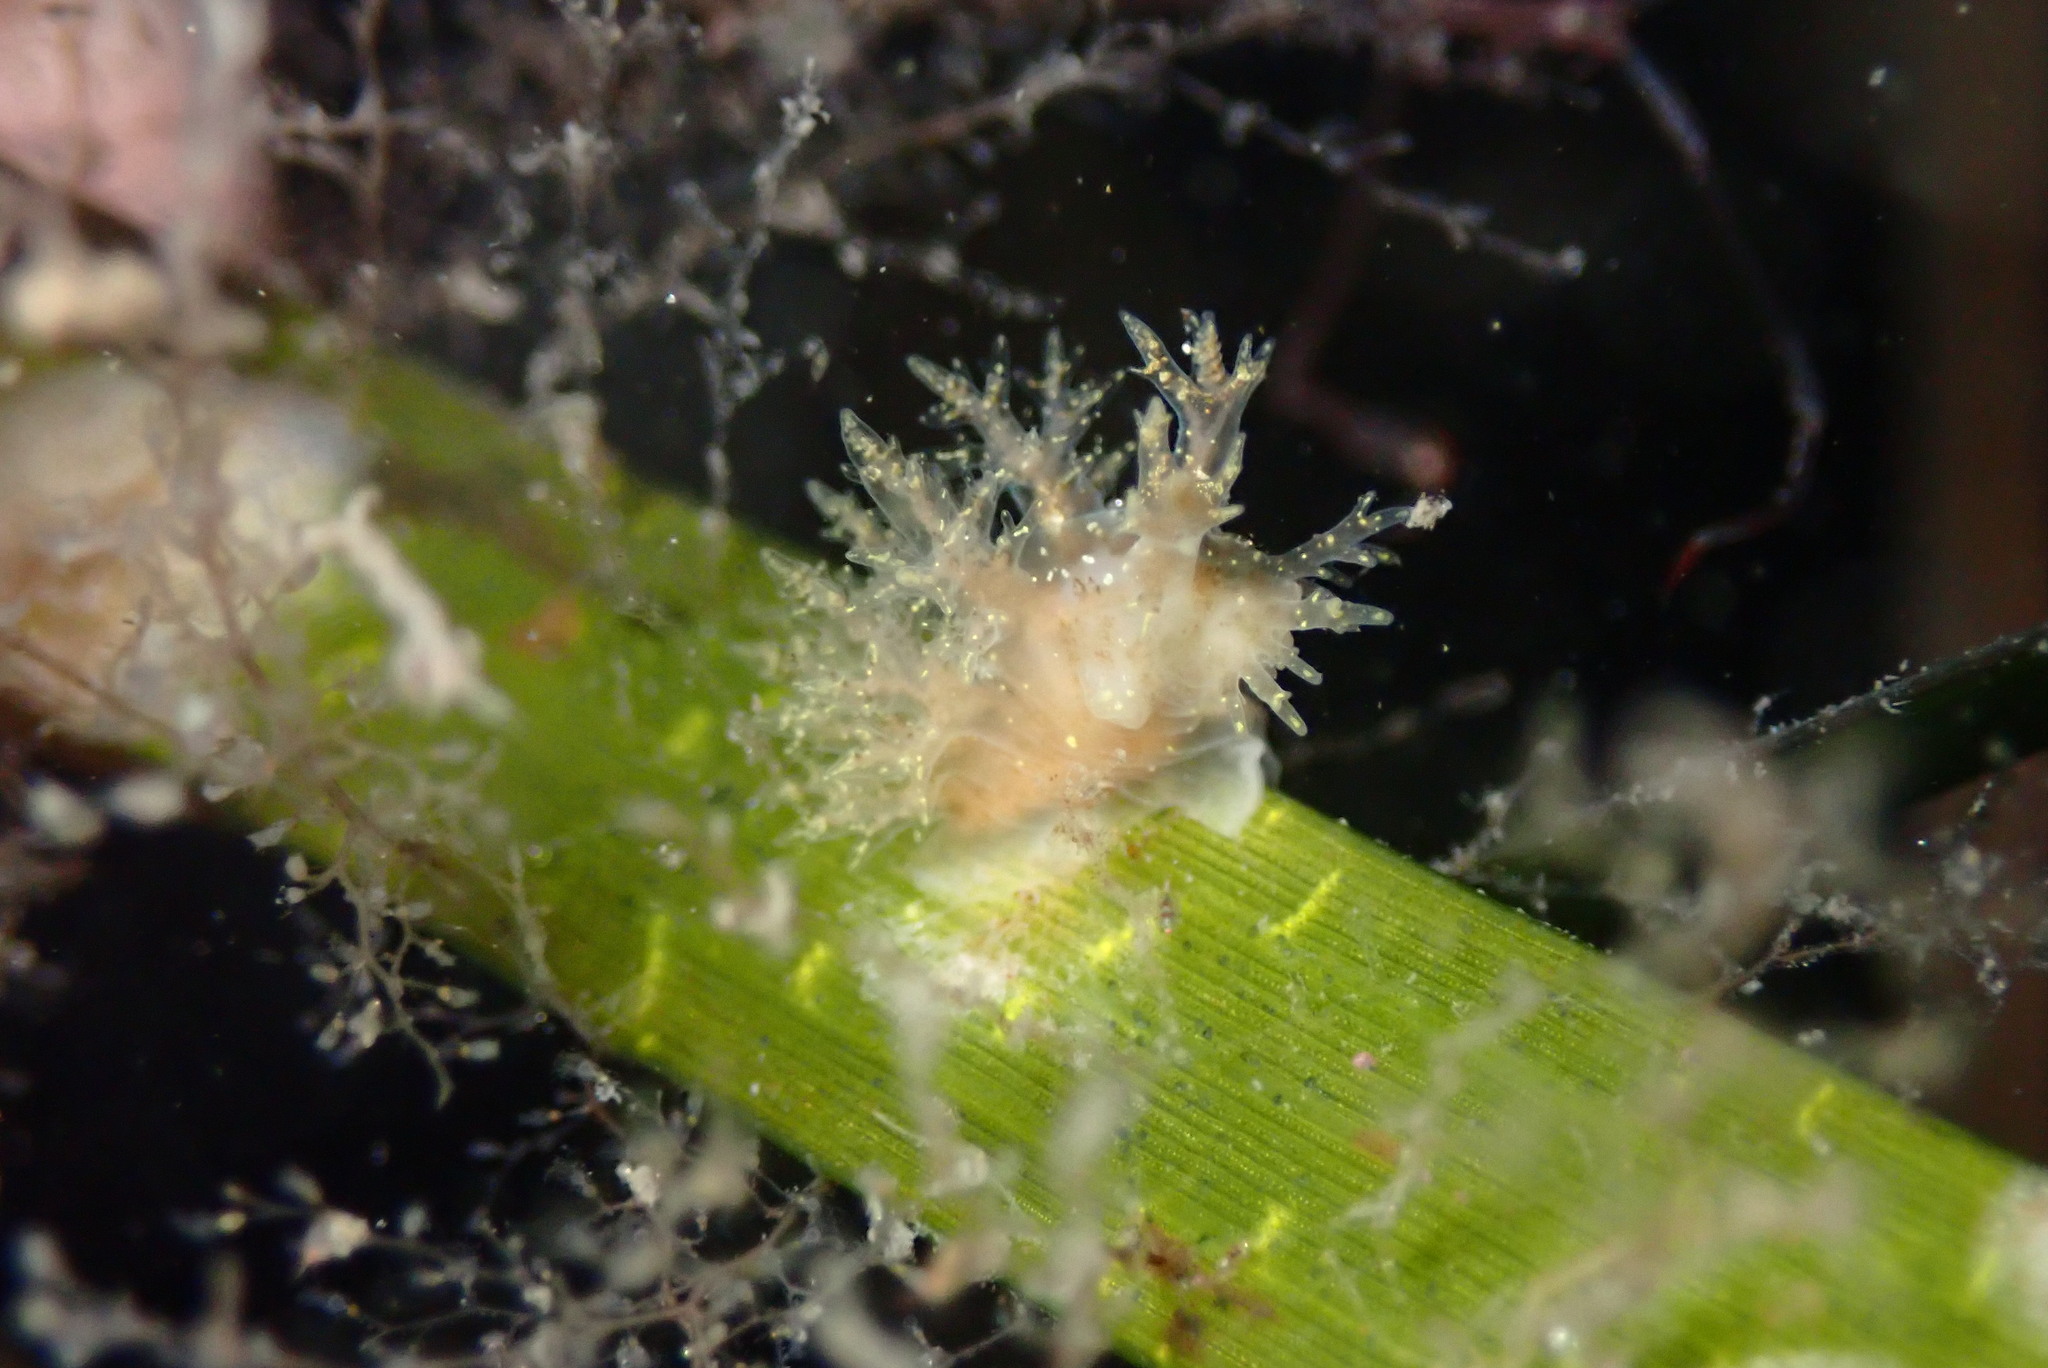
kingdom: Animalia
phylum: Mollusca
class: Gastropoda
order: Nudibranchia
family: Dendronotidae
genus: Dendronotus
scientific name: Dendronotus venustus
